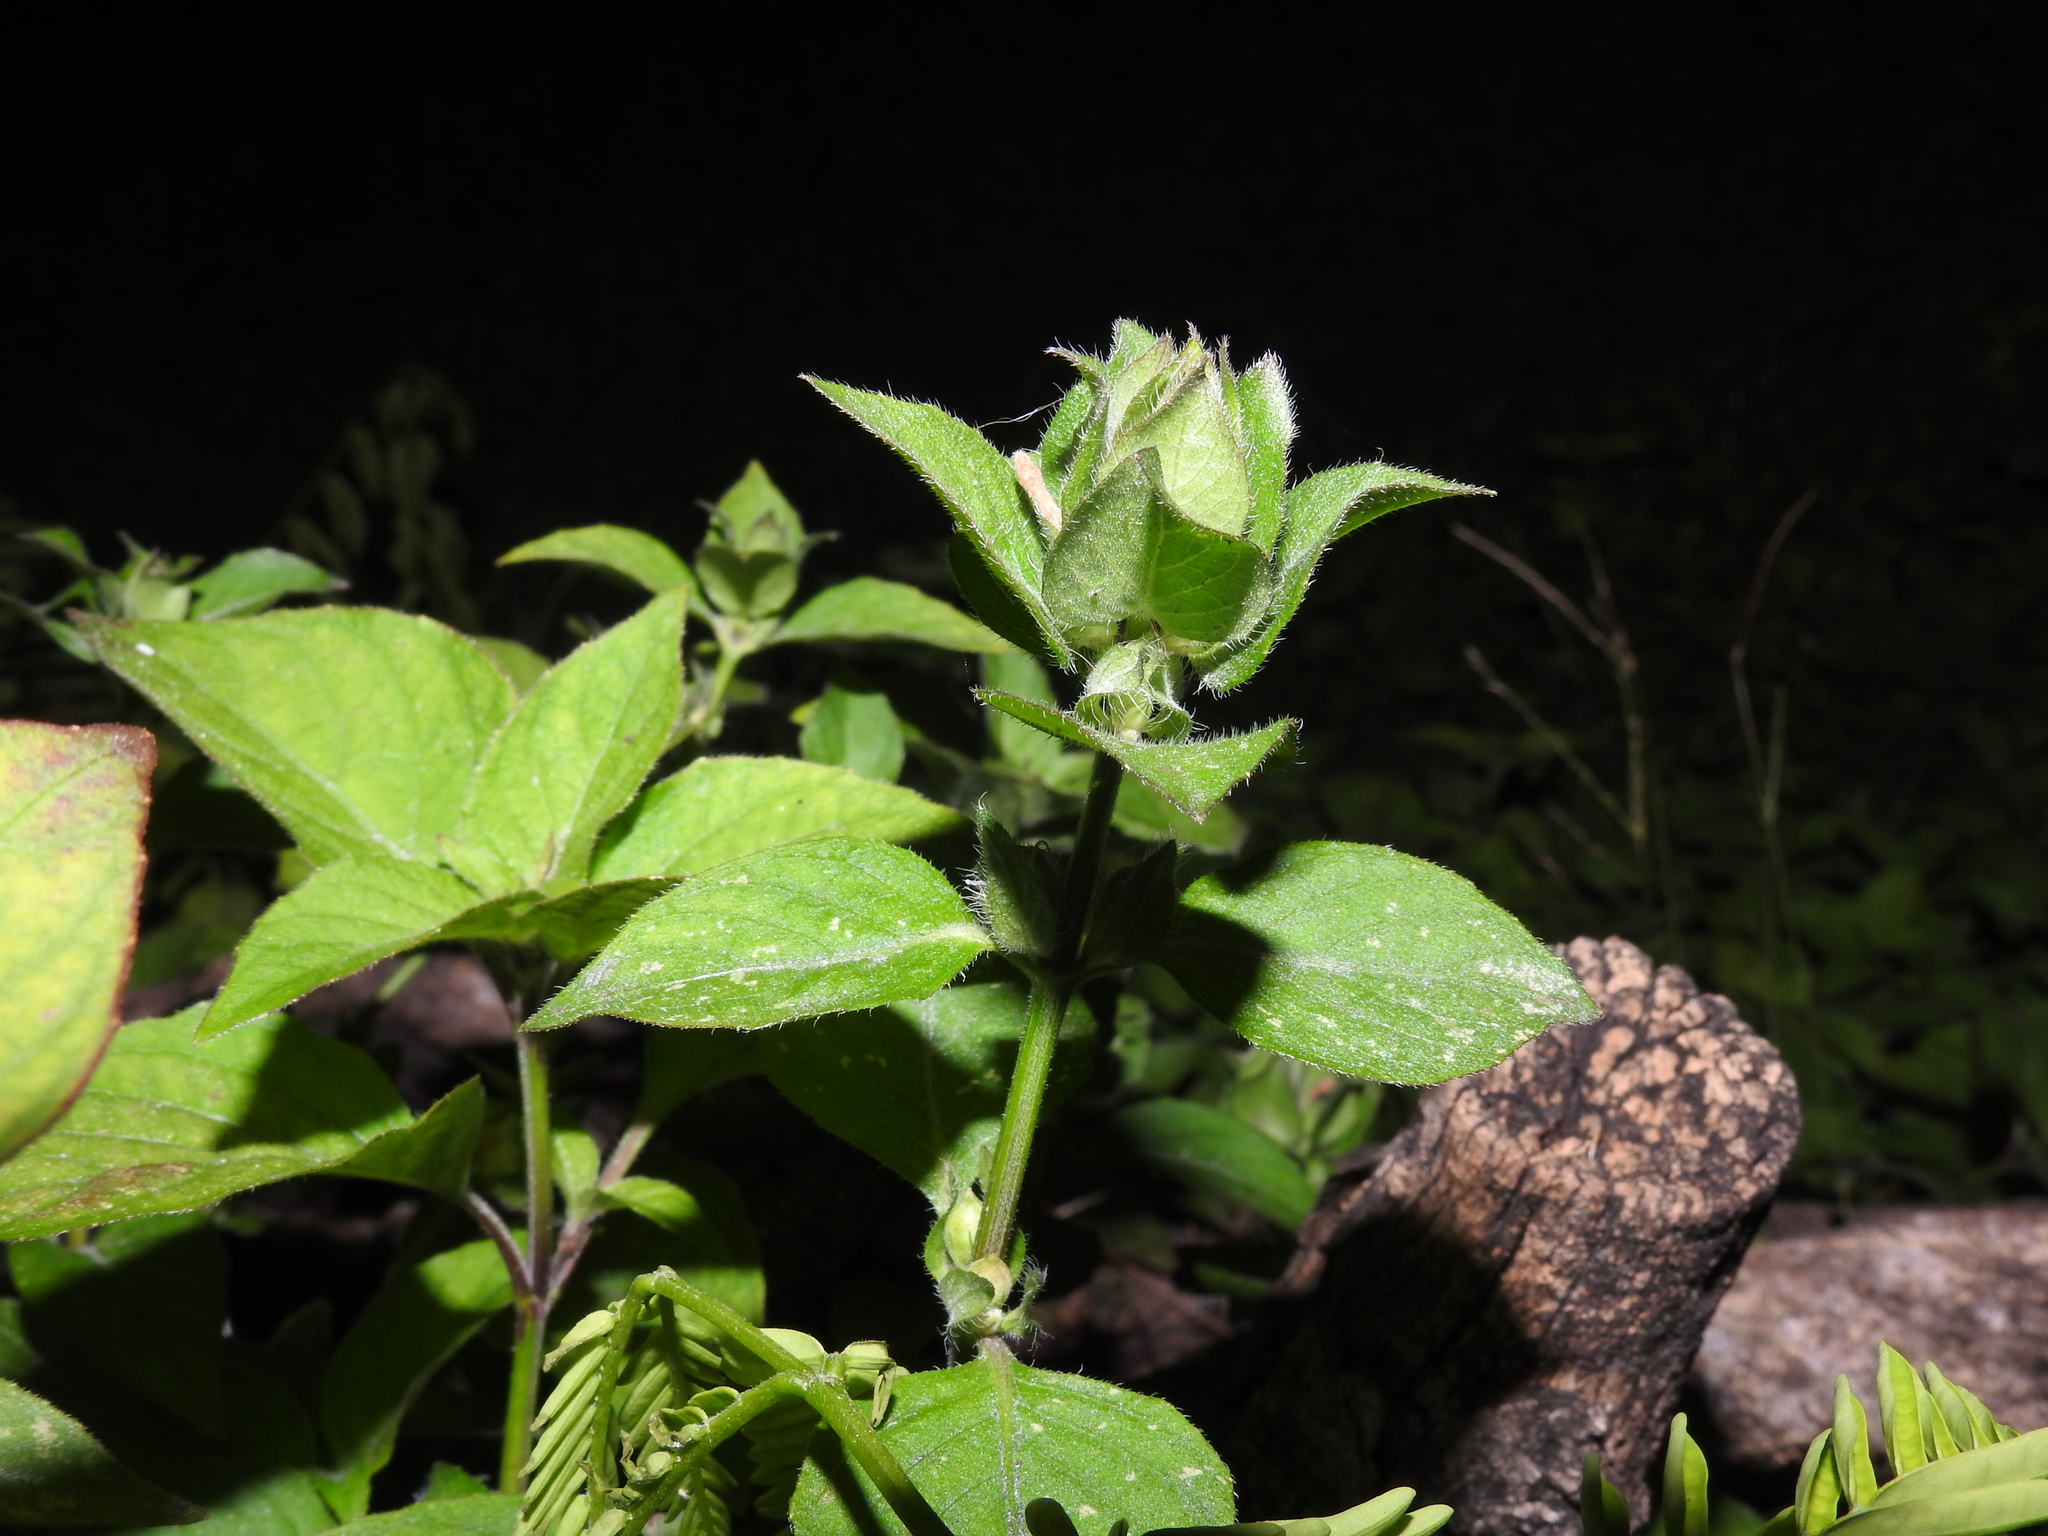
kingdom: Plantae
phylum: Tracheophyta
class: Magnoliopsida
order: Lamiales
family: Acanthaceae
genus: Ruellia
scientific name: Ruellia blechum
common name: Browne's blechum
